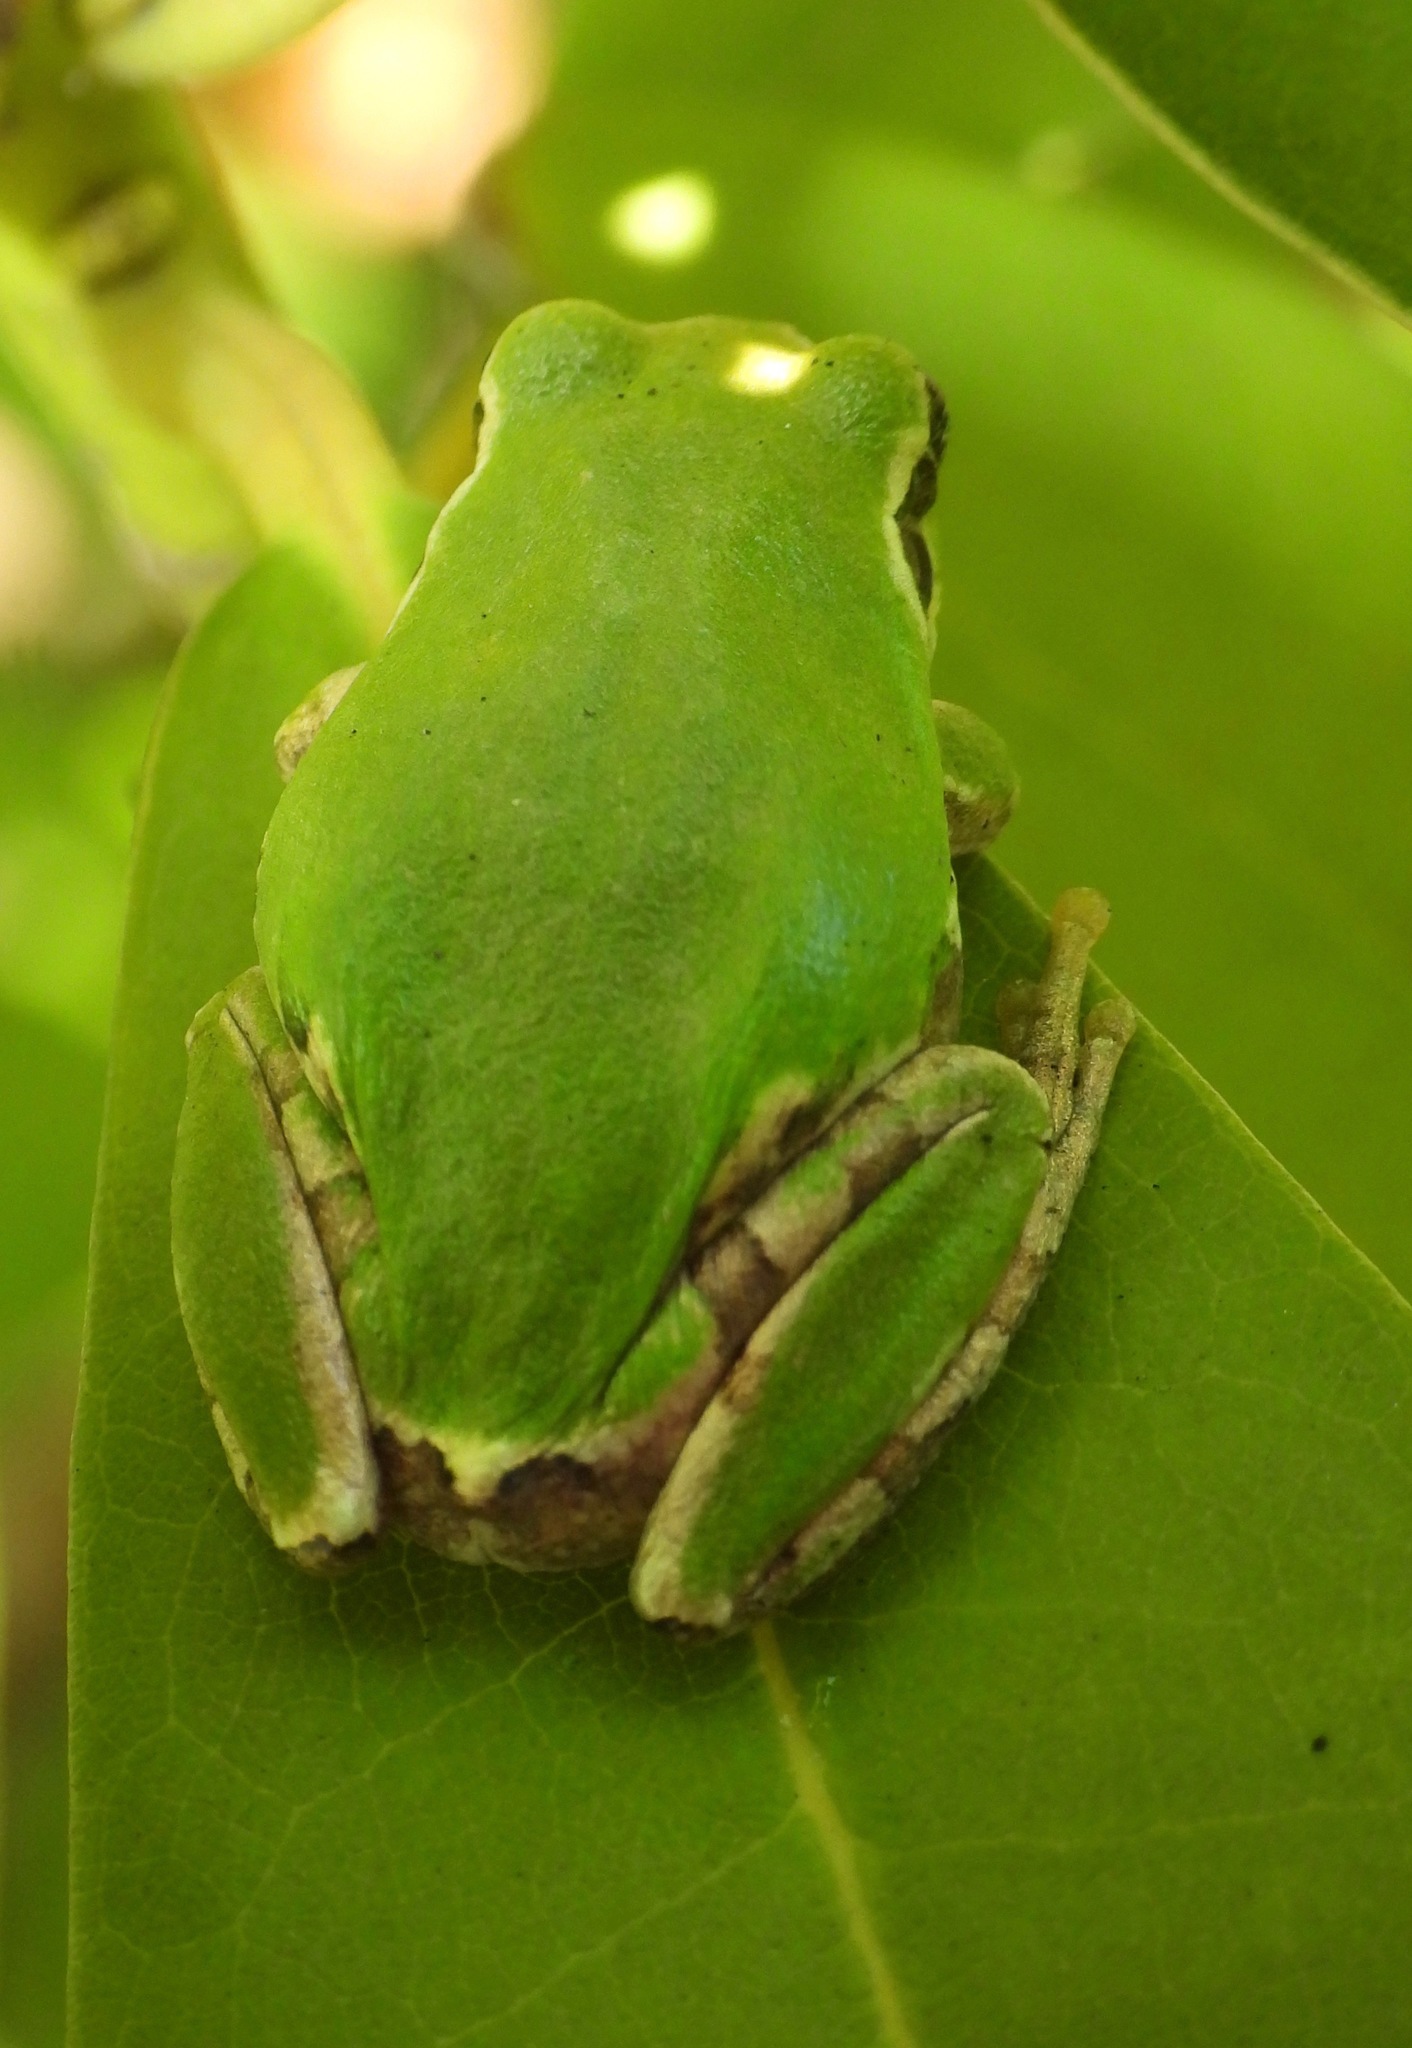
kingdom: Animalia
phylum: Chordata
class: Amphibia
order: Anura
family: Hylidae
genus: Dryophytes
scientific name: Dryophytes japonicus
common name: Japanese treefrog
